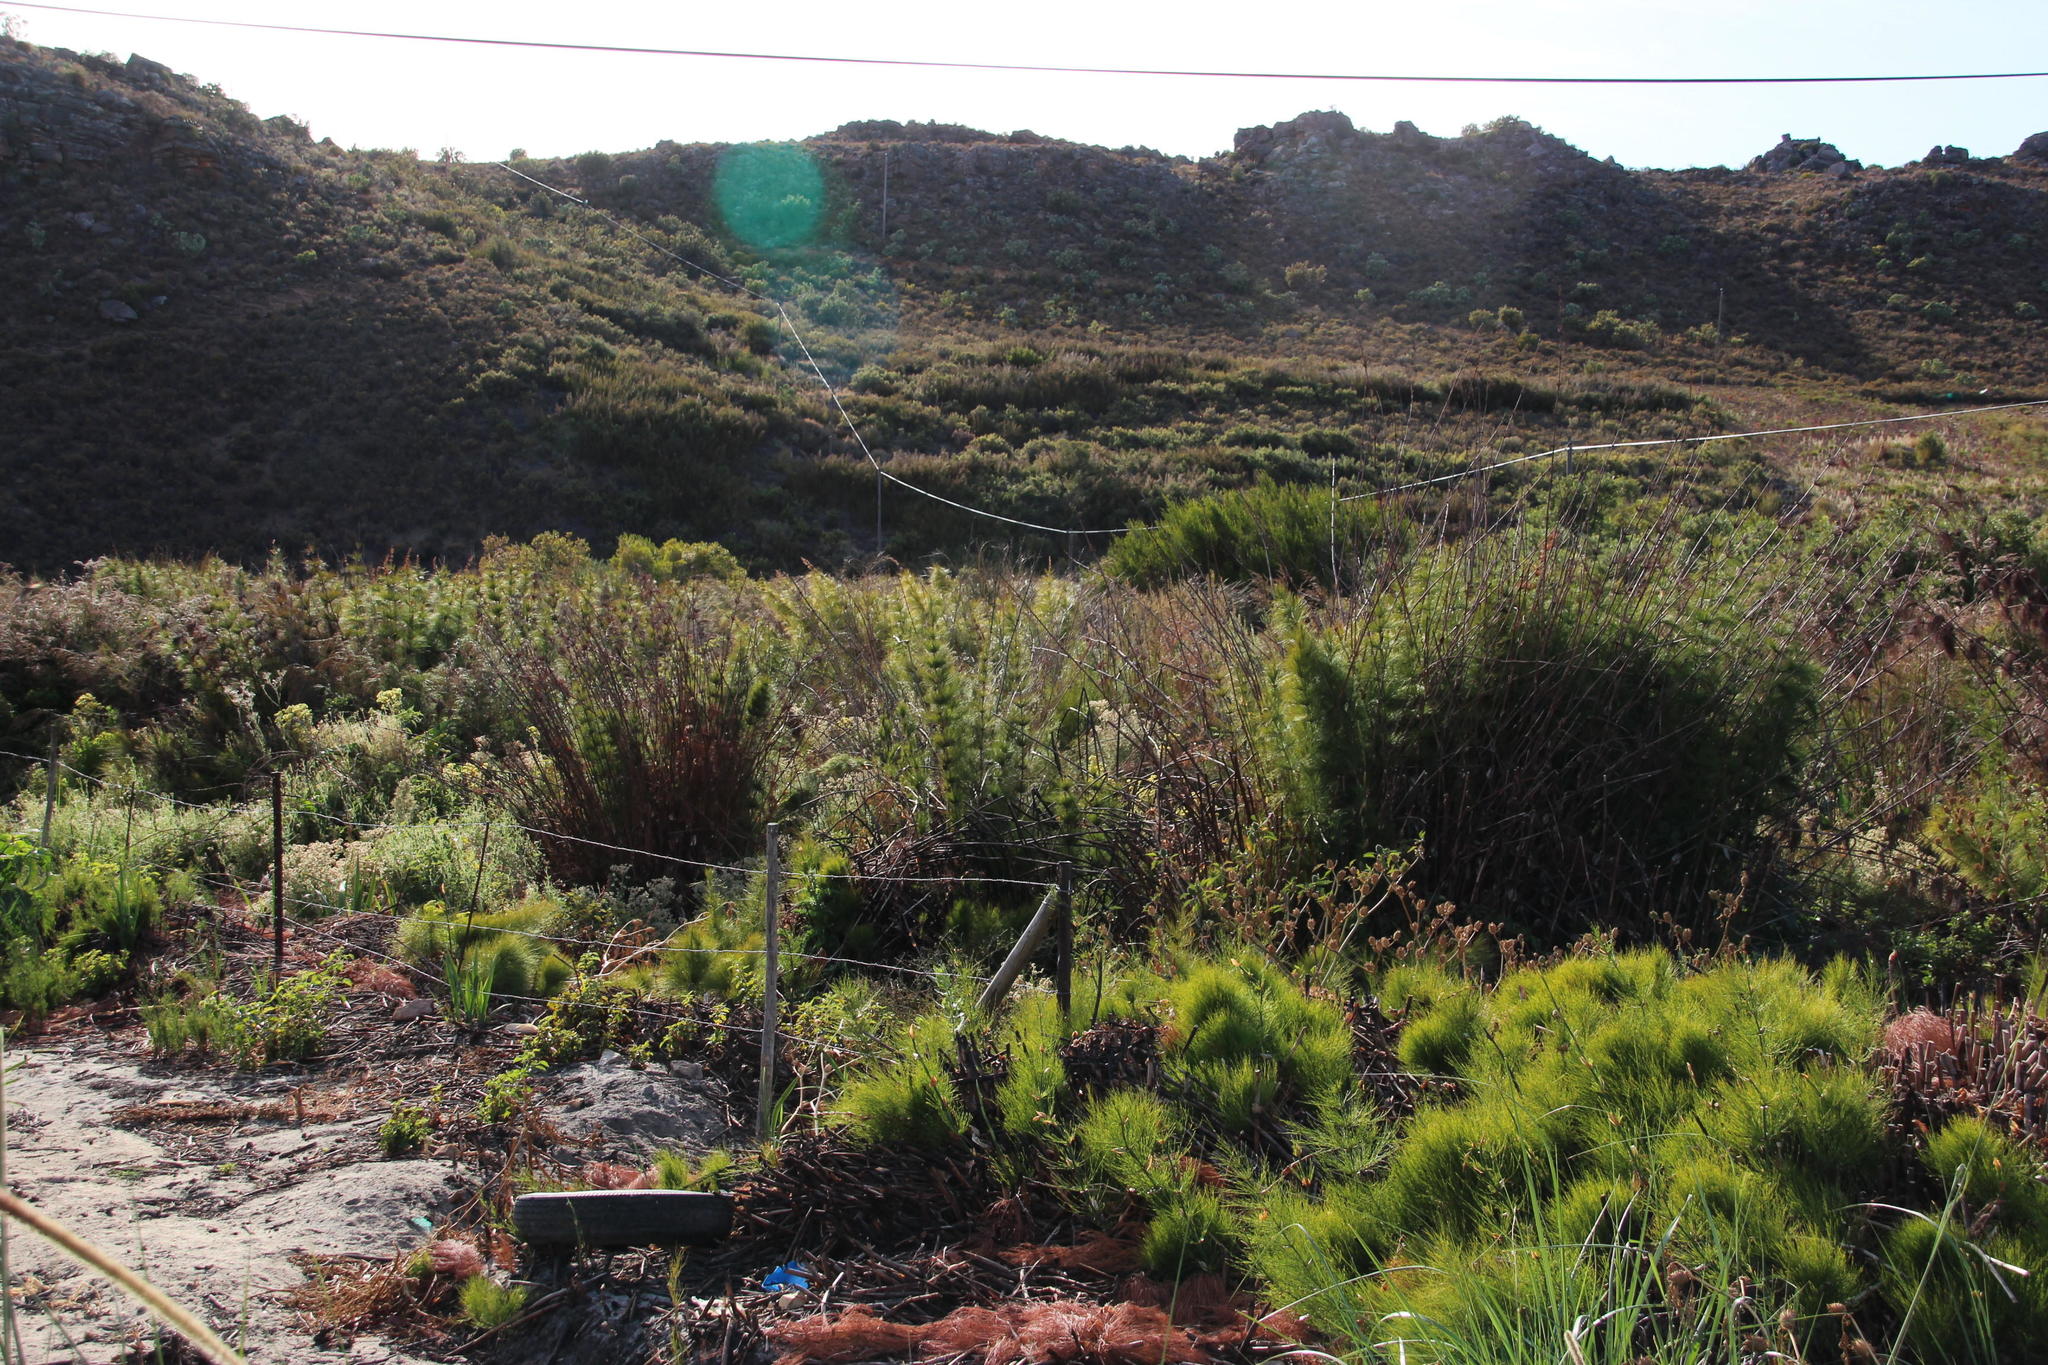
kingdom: Plantae
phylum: Tracheophyta
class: Liliopsida
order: Poales
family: Restionaceae
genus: Elegia
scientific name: Elegia capensis
